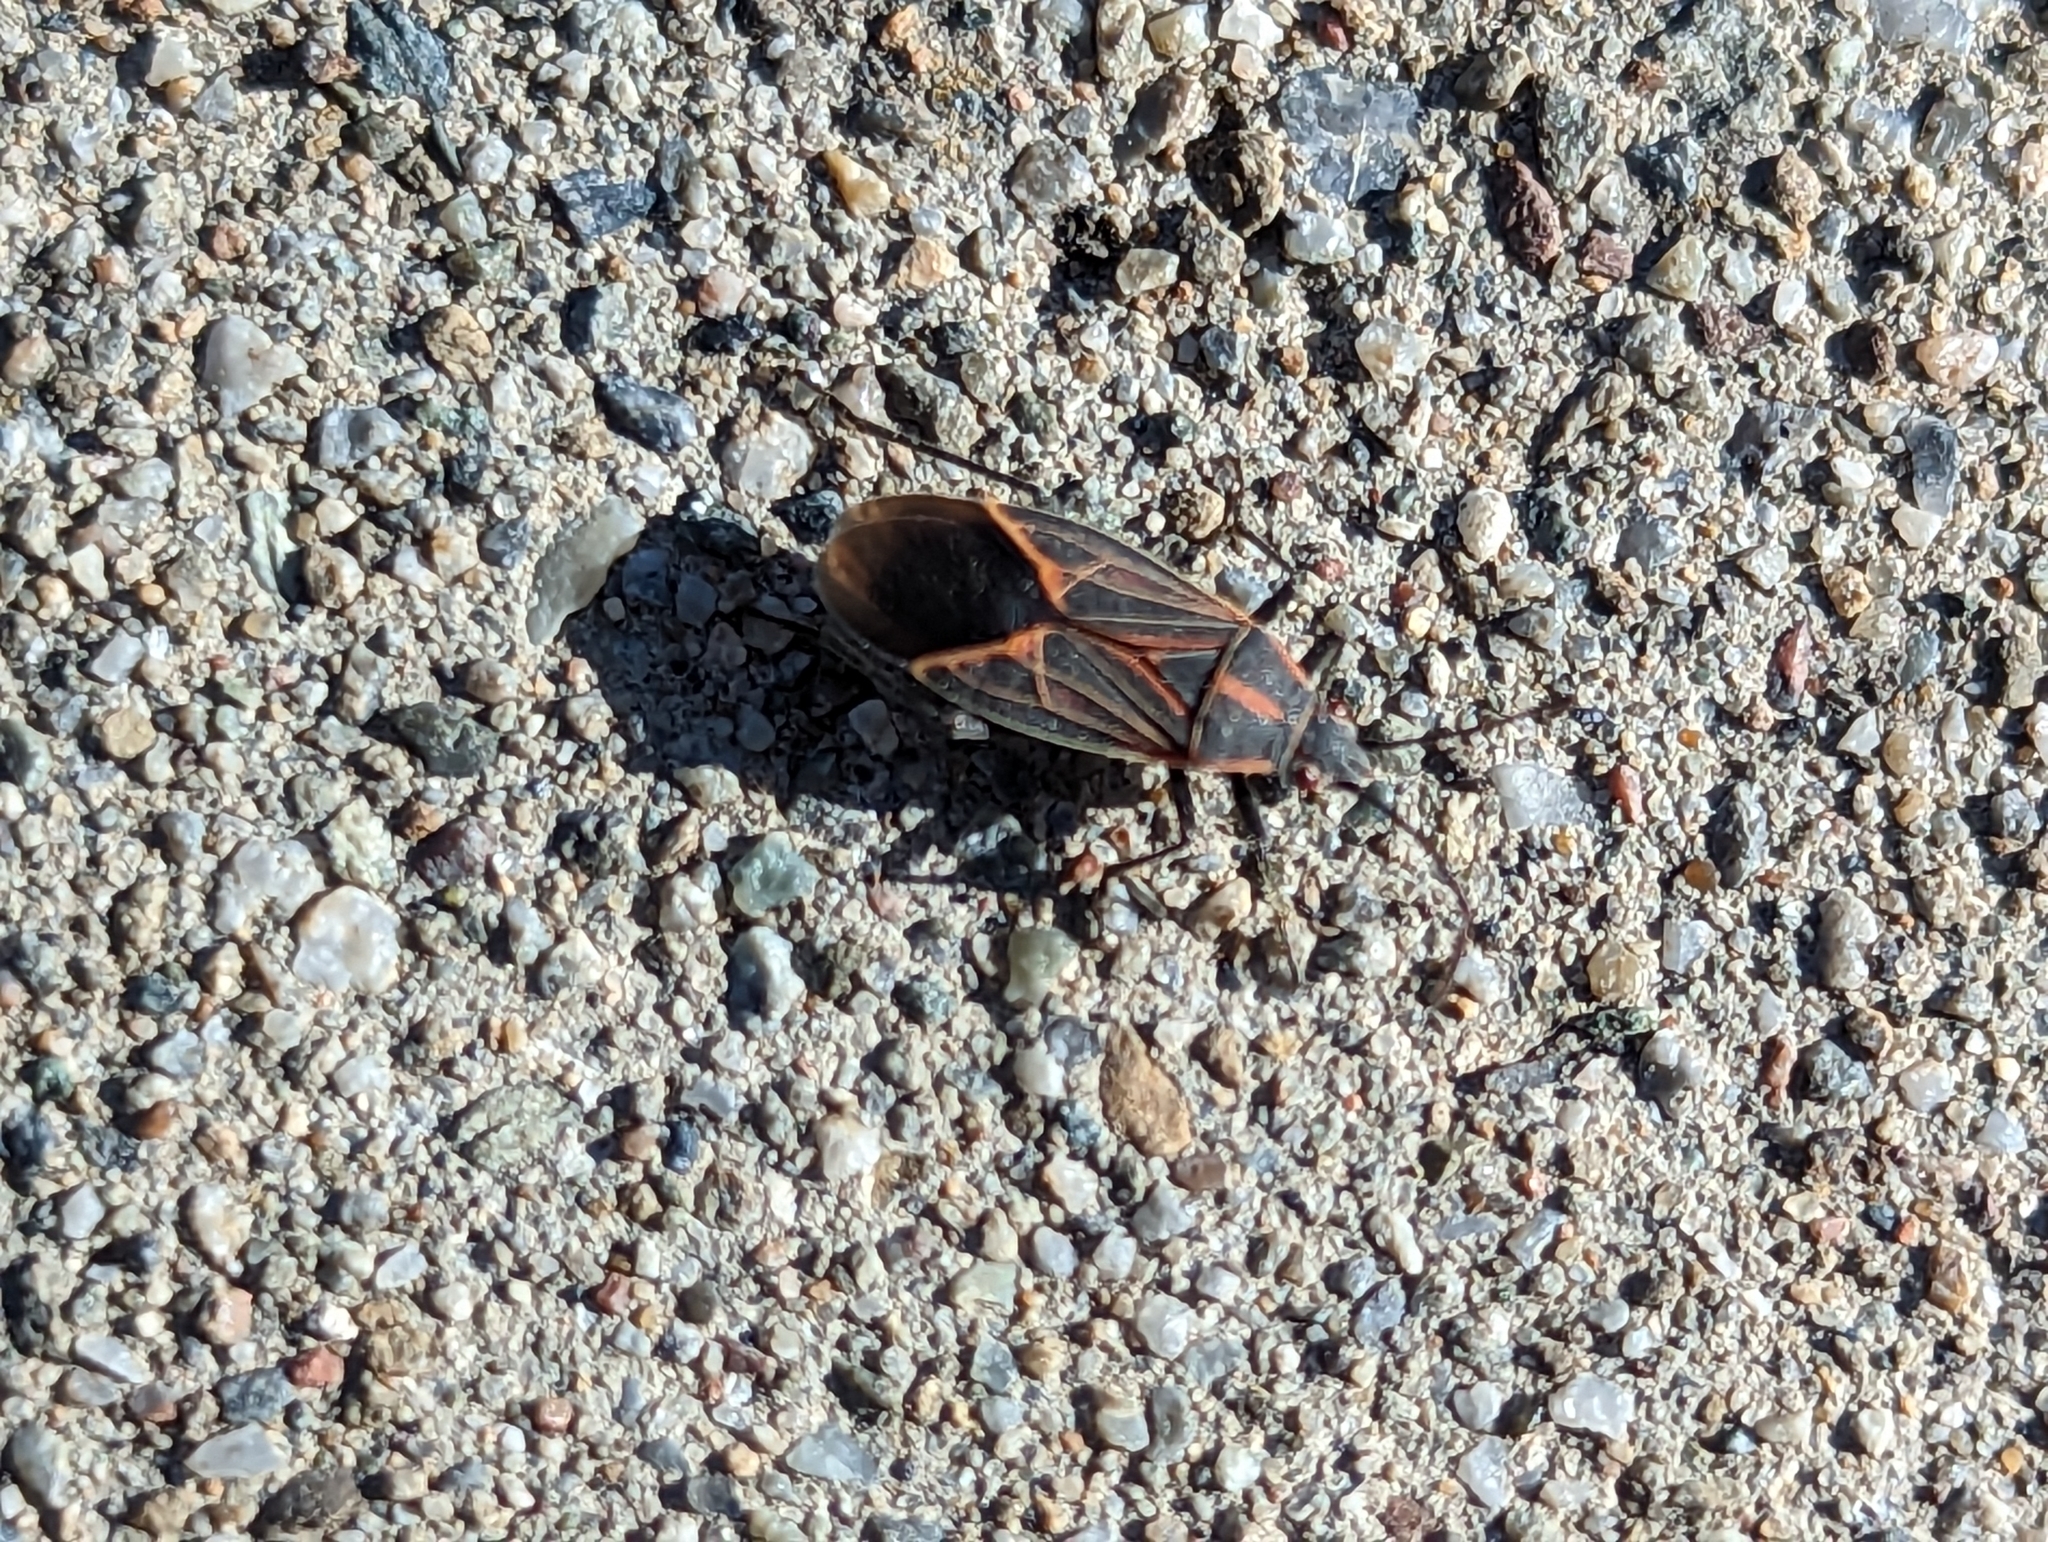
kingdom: Animalia
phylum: Arthropoda
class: Insecta
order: Hemiptera
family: Rhopalidae
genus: Boisea
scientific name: Boisea rubrolineata
